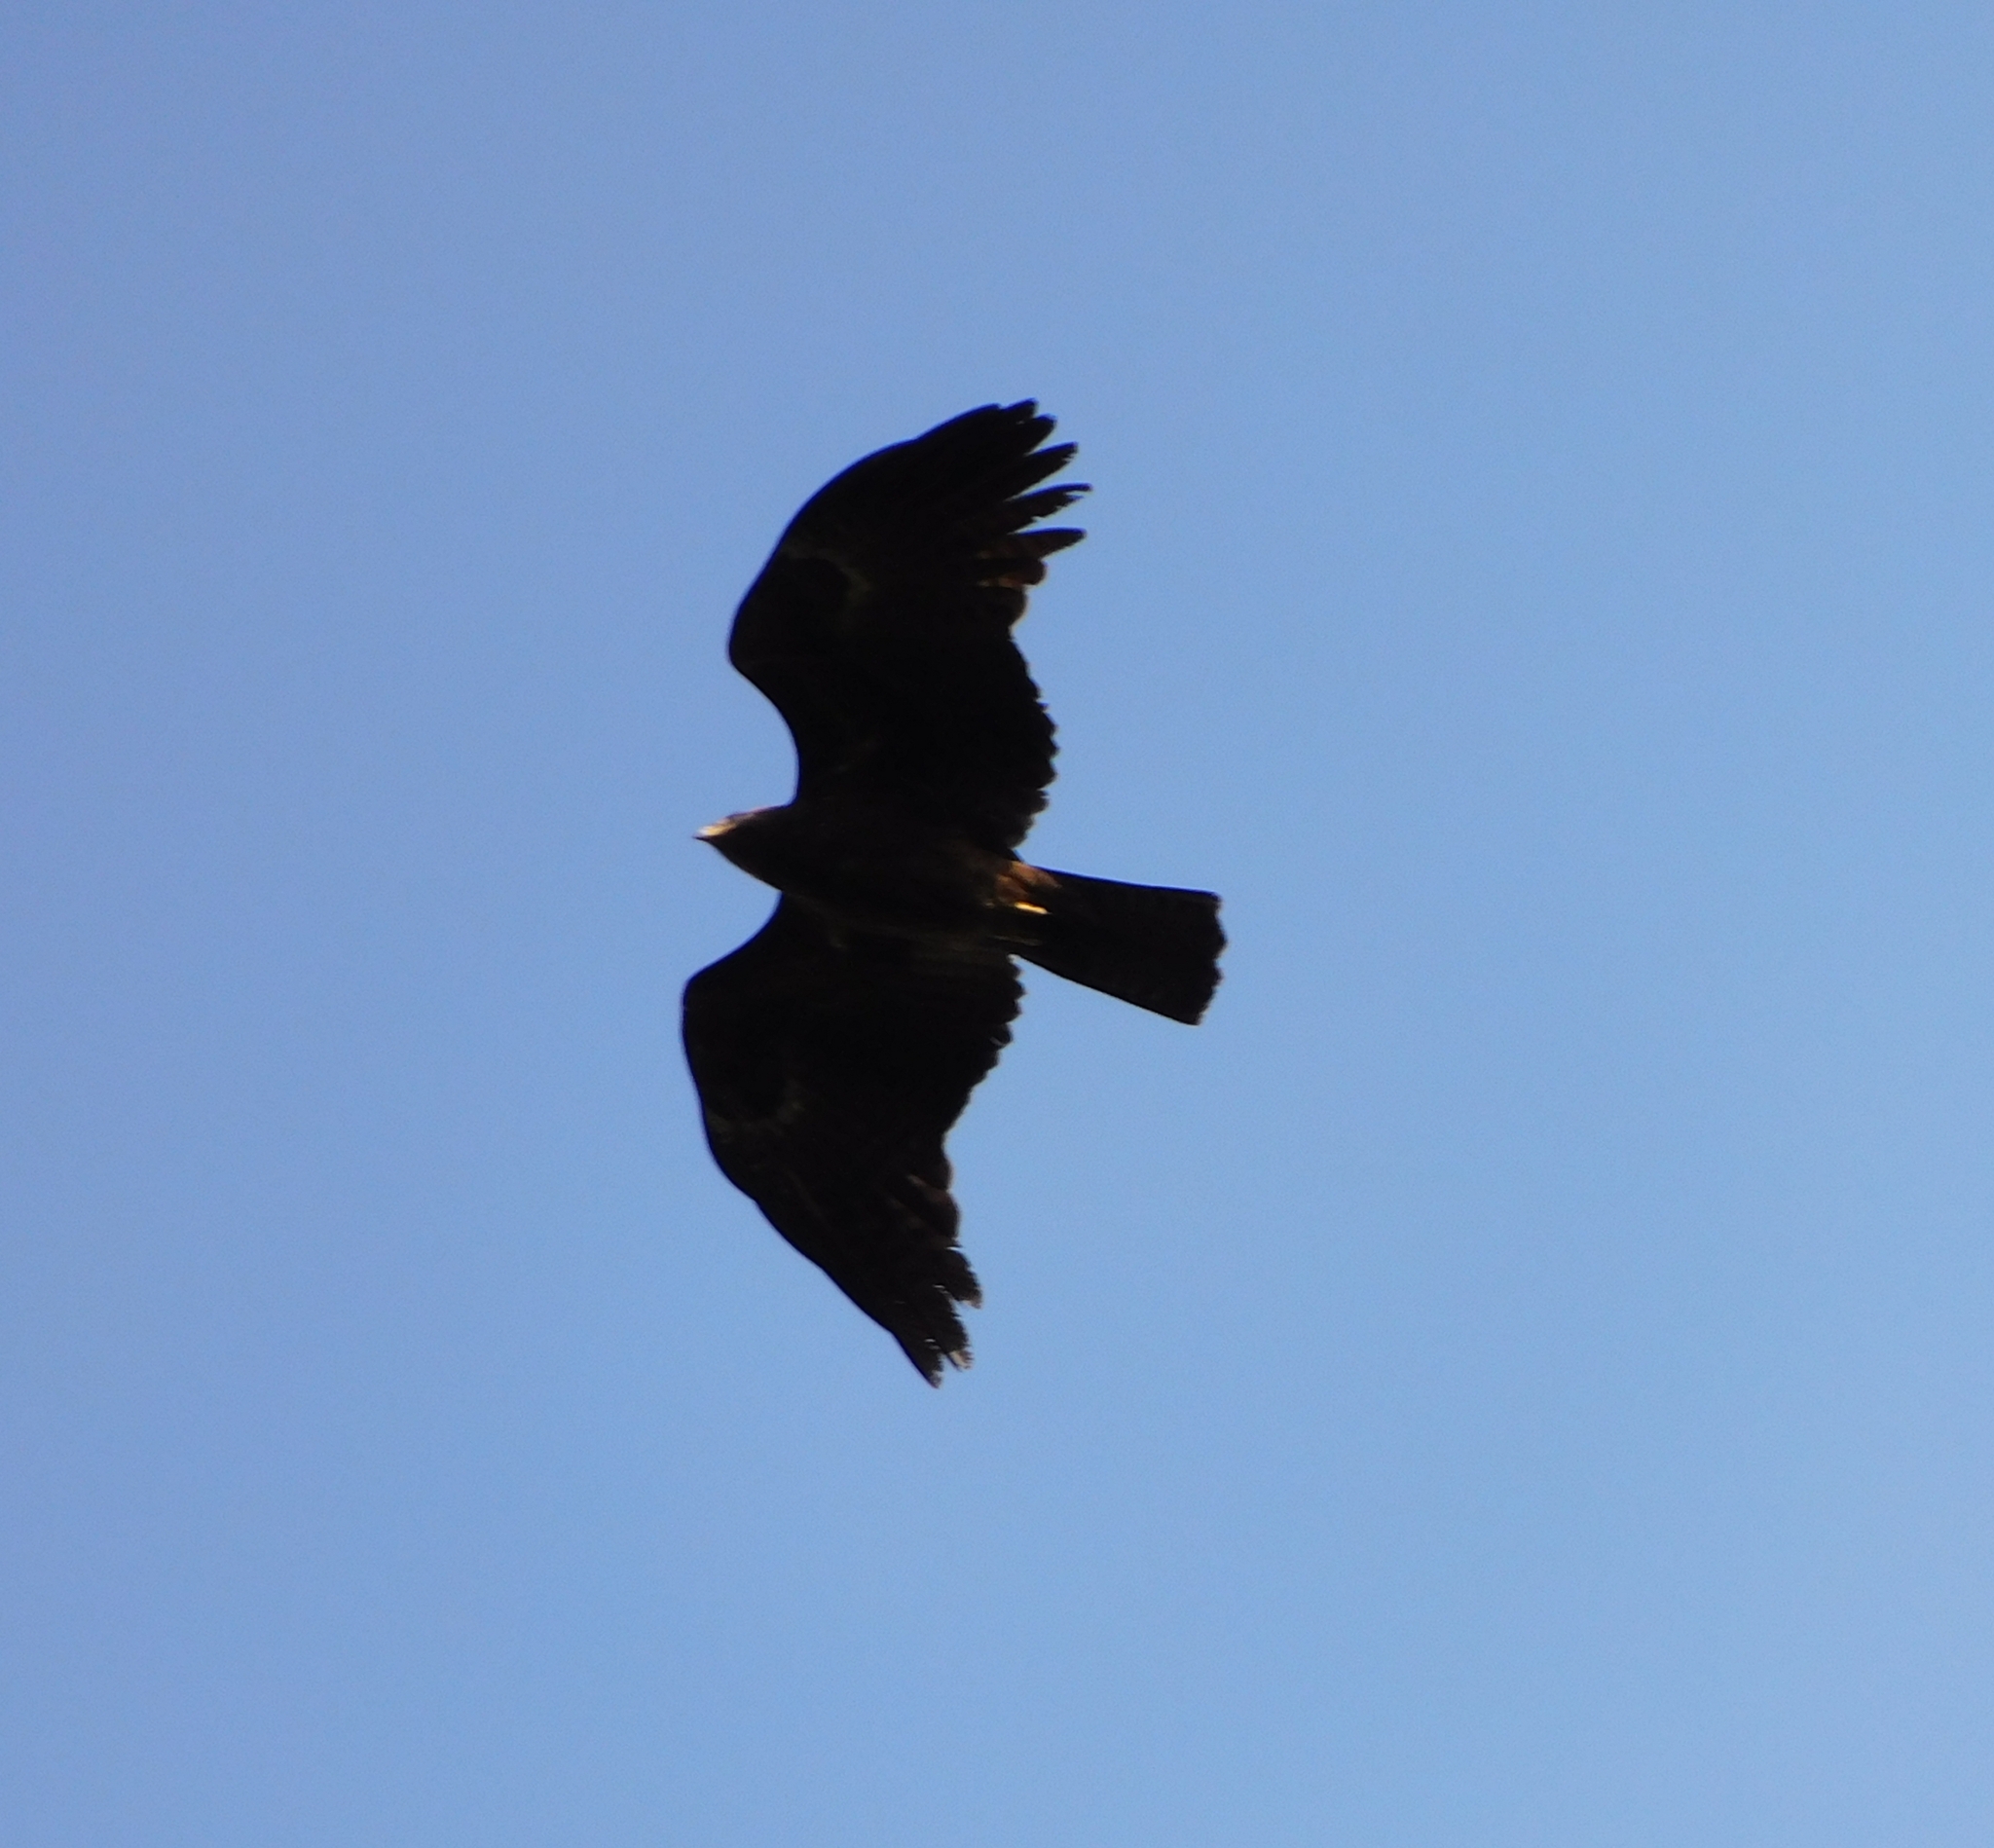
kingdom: Animalia
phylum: Chordata
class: Aves
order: Accipitriformes
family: Accipitridae
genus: Ictinaetus
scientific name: Ictinaetus malayensis
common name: Black eagle
